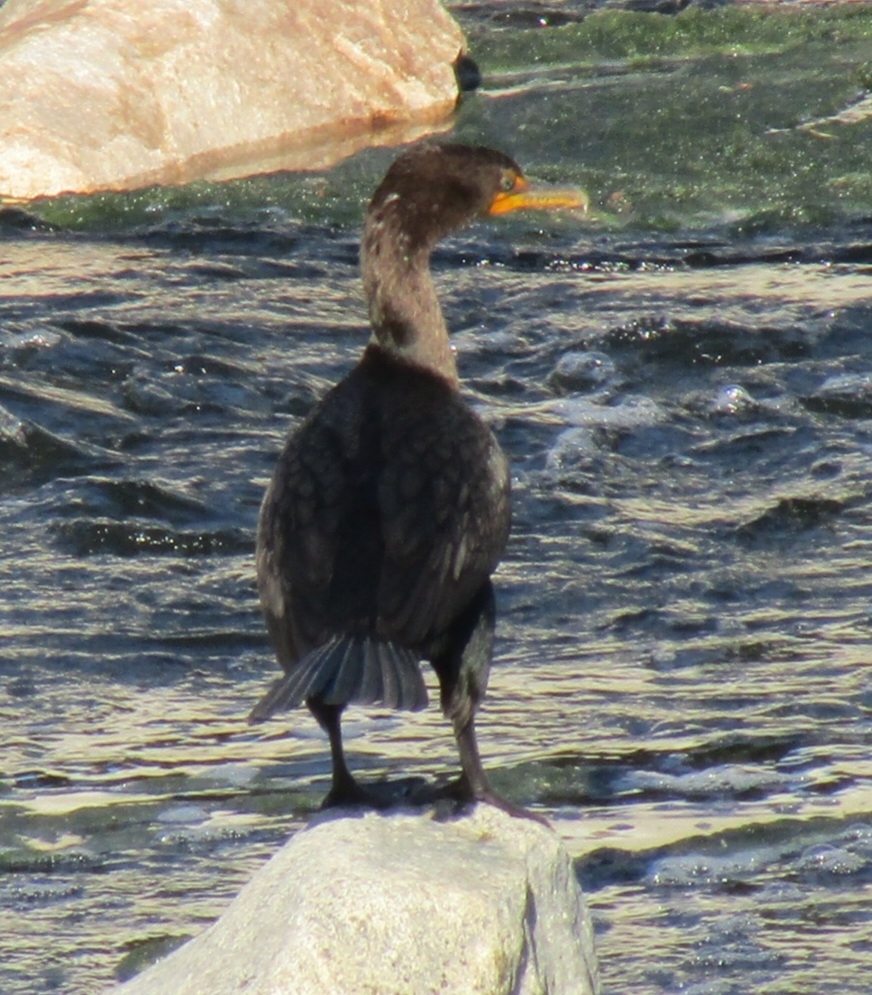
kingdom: Animalia
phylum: Chordata
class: Aves
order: Suliformes
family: Phalacrocoracidae
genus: Phalacrocorax
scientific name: Phalacrocorax auritus
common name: Double-crested cormorant
